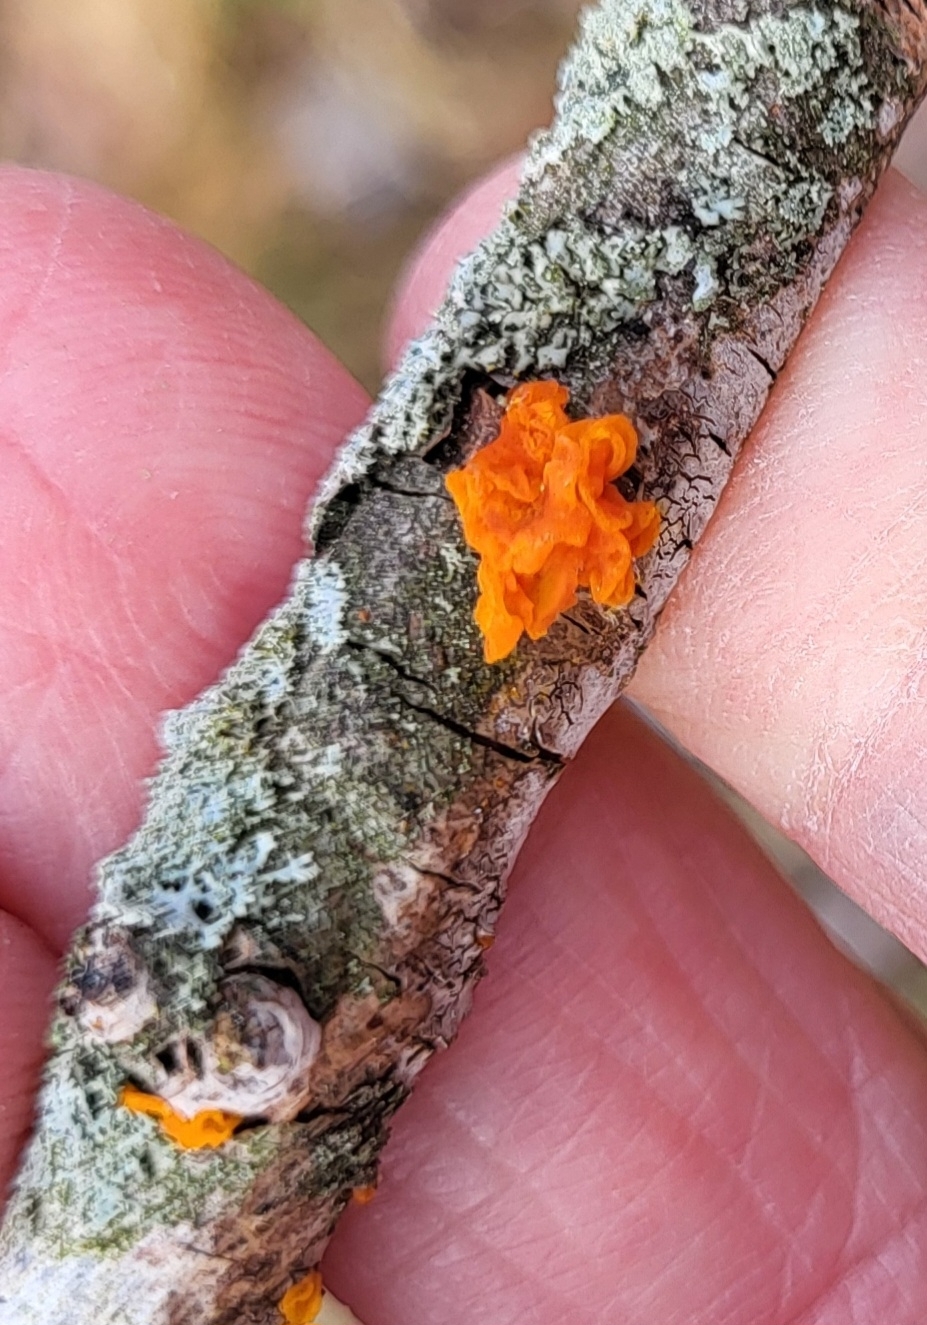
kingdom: Fungi
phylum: Basidiomycota
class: Tremellomycetes
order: Tremellales
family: Tremellaceae
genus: Tremella
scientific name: Tremella mesenterica
